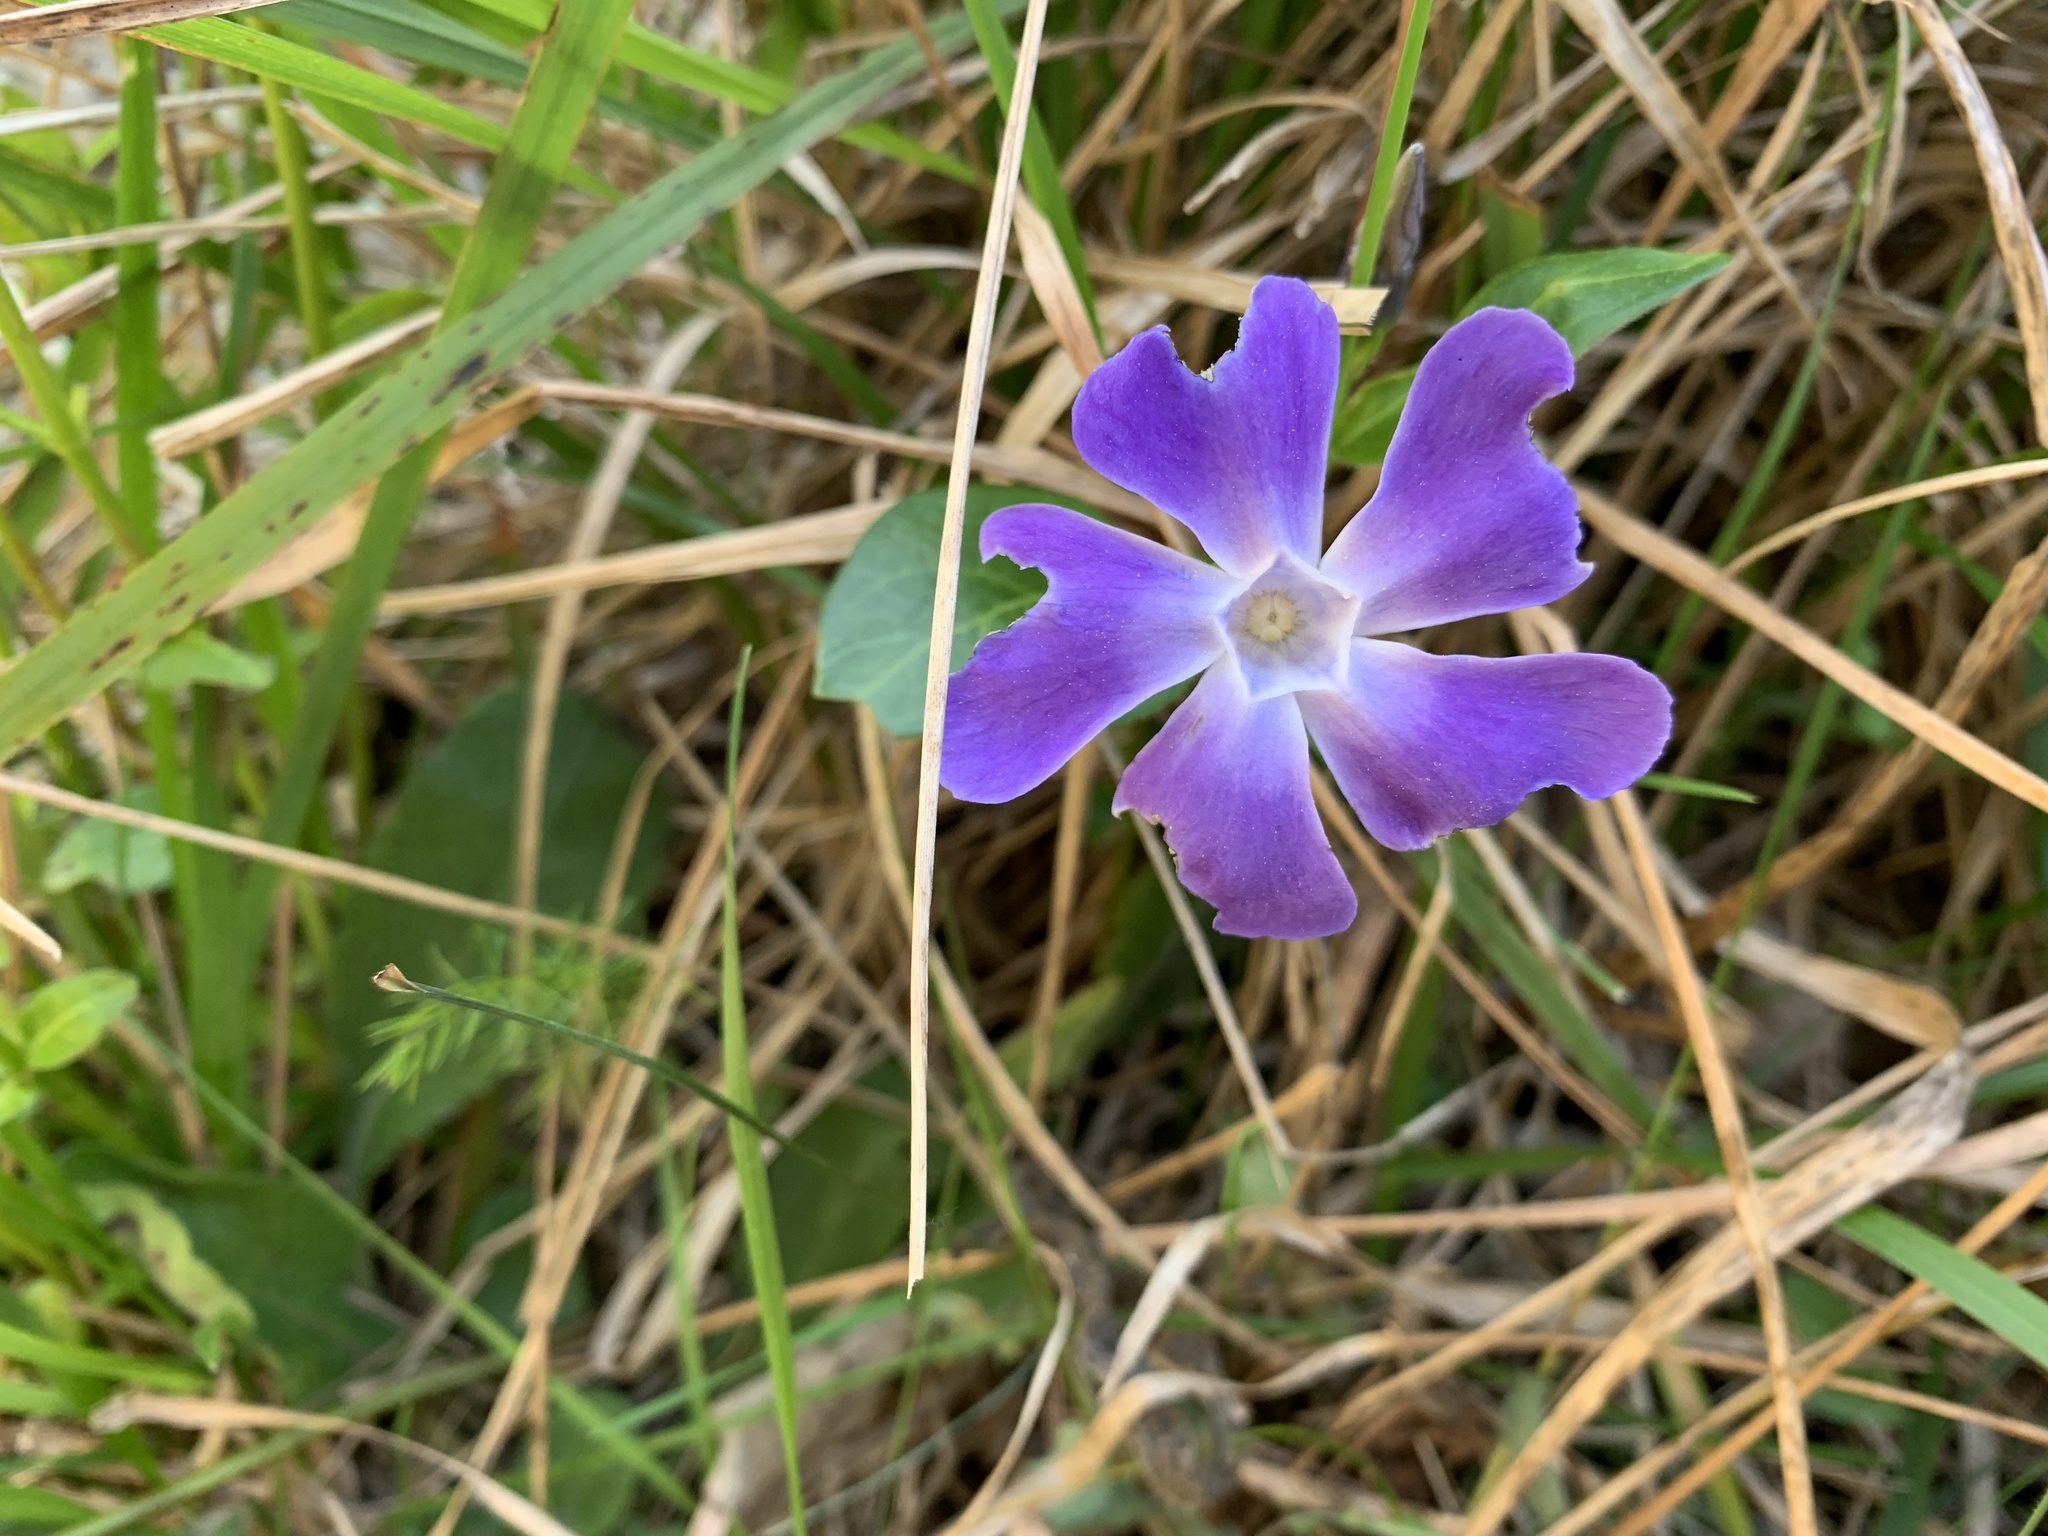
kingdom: Plantae
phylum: Tracheophyta
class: Magnoliopsida
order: Gentianales
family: Apocynaceae
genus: Vinca
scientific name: Vinca major
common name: Greater periwinkle
